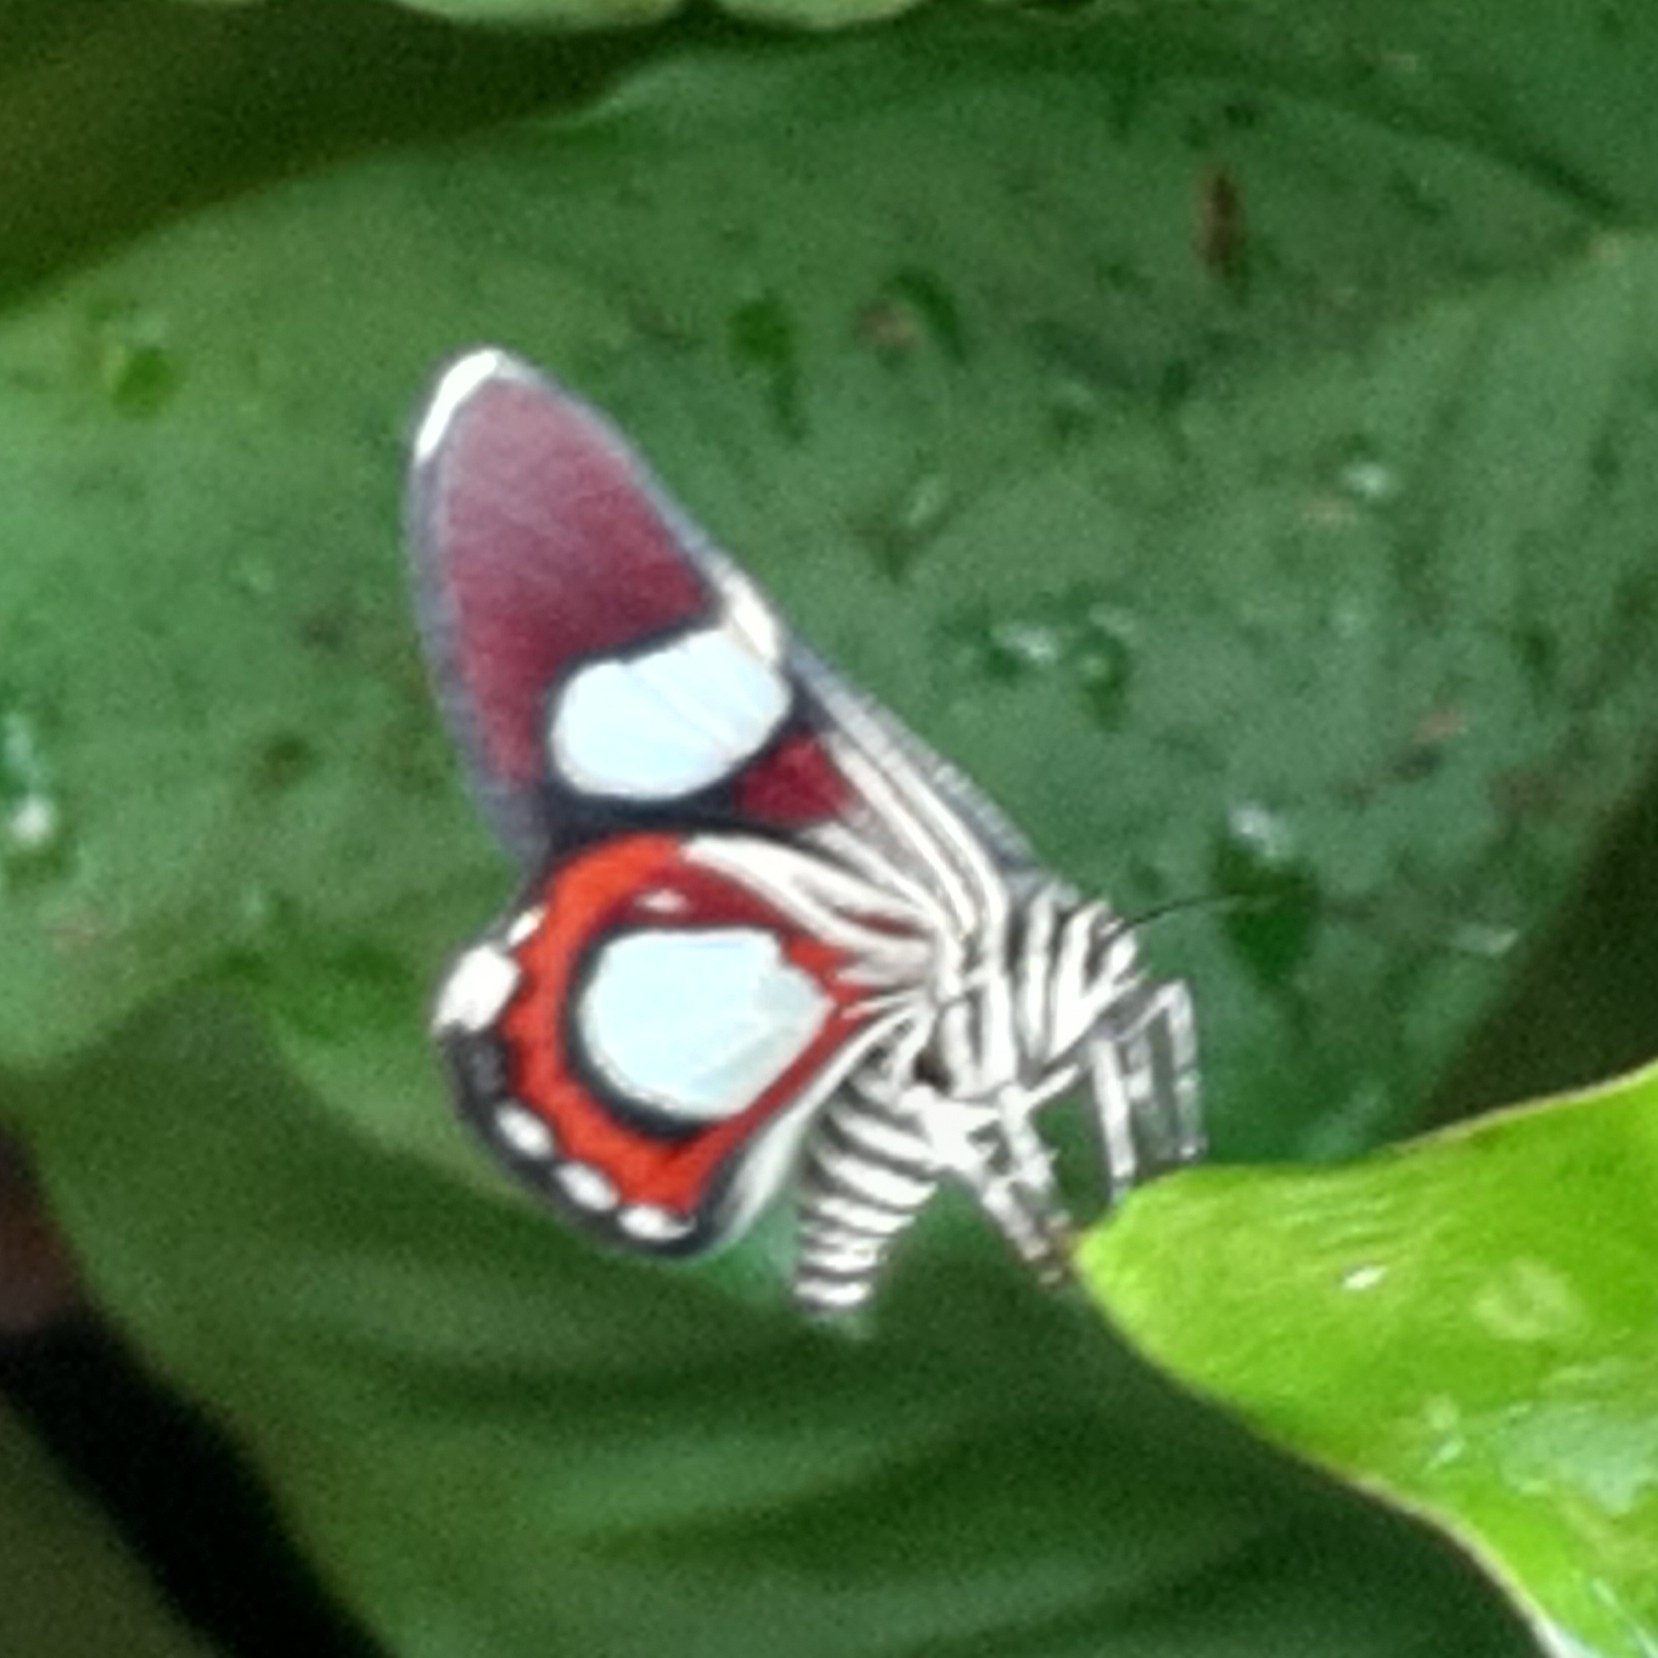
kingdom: Animalia
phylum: Arthropoda
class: Insecta
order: Lepidoptera
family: Geometridae
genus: Trocherateina
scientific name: Trocherateina specularia
